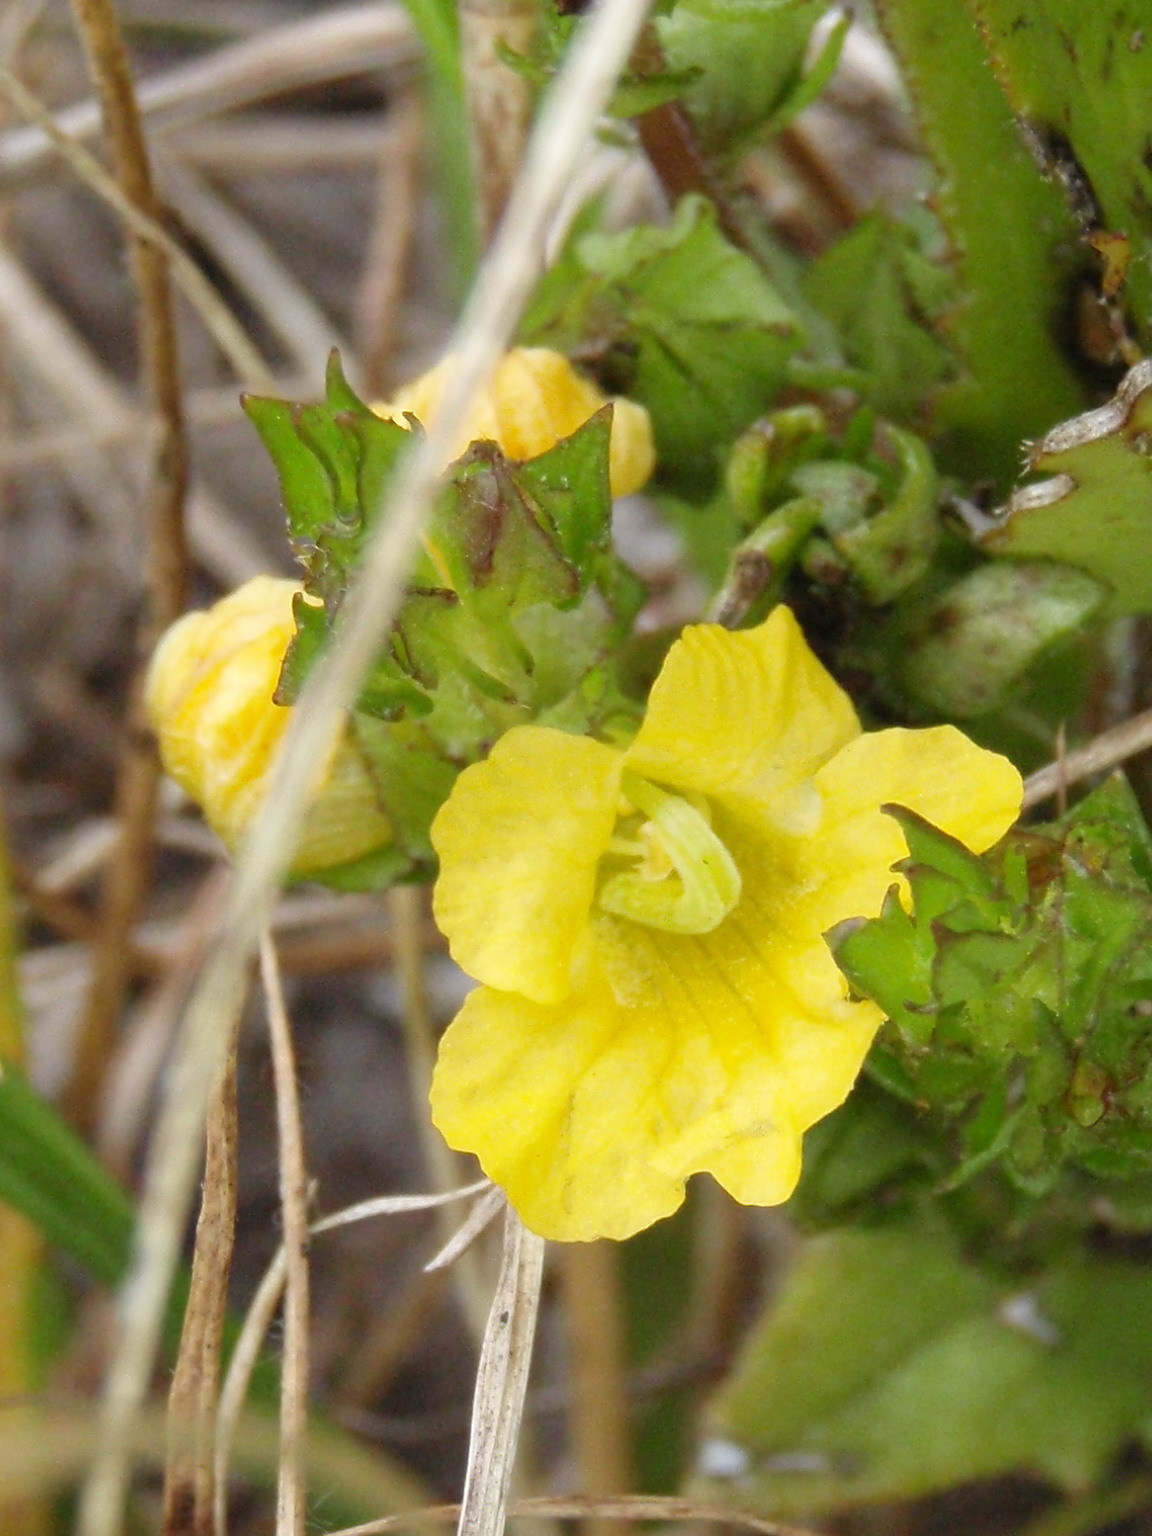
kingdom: Plantae
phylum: Tracheophyta
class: Magnoliopsida
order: Lamiales
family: Orobanchaceae
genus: Alectra
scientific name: Alectra sessiliflora
